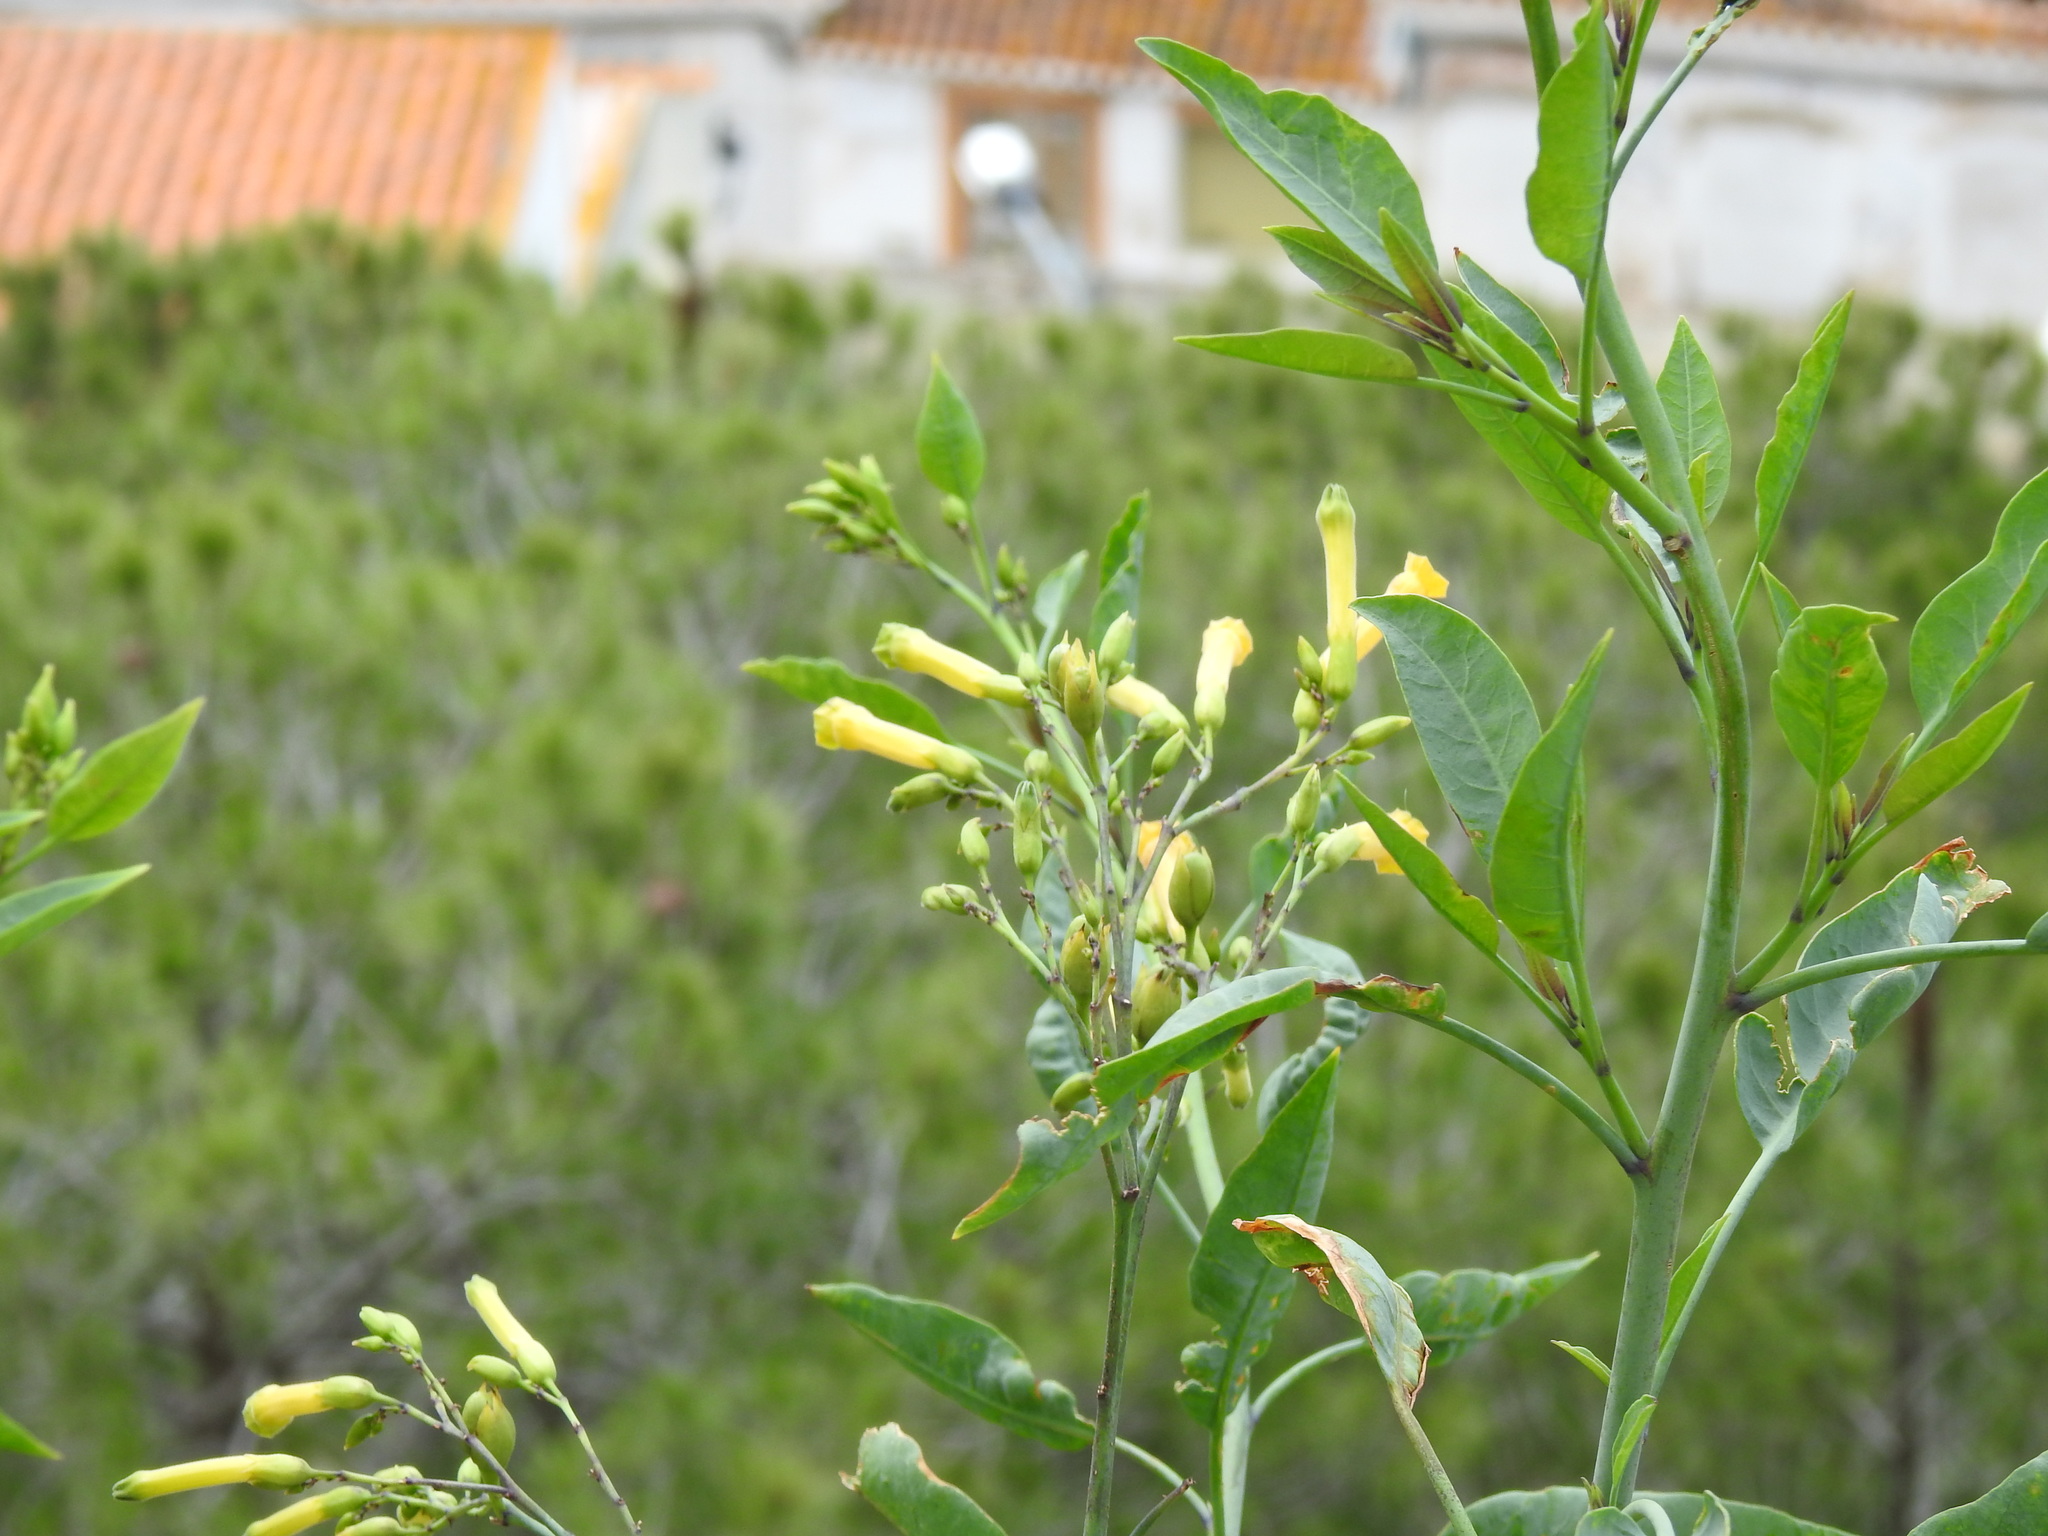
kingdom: Plantae
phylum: Tracheophyta
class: Magnoliopsida
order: Solanales
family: Solanaceae
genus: Nicotiana
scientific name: Nicotiana glauca
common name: Tree tobacco
